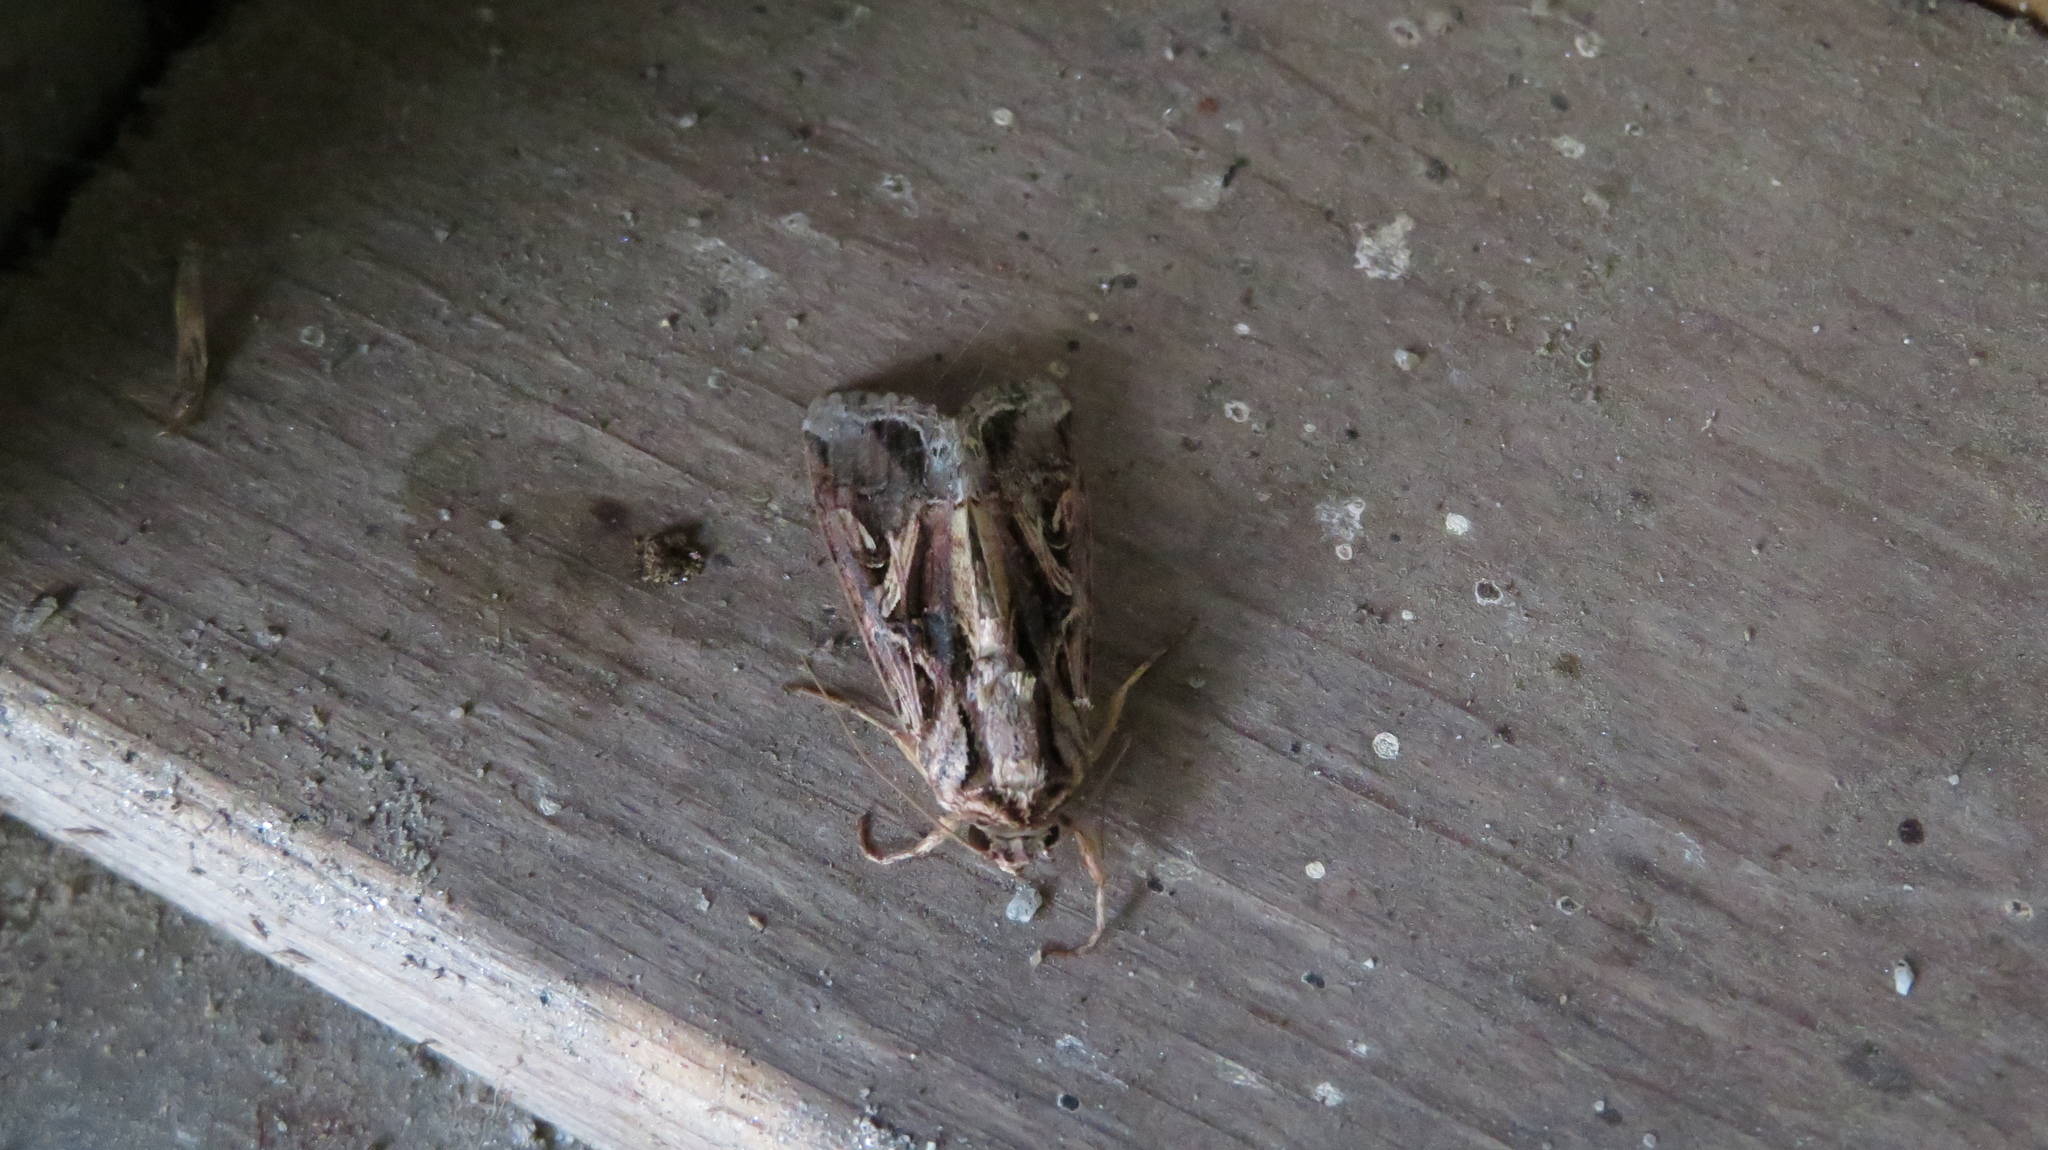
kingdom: Animalia
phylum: Arthropoda
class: Insecta
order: Lepidoptera
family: Noctuidae
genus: Spodoptera
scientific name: Spodoptera dolichos
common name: Sweetpotato armyworm
